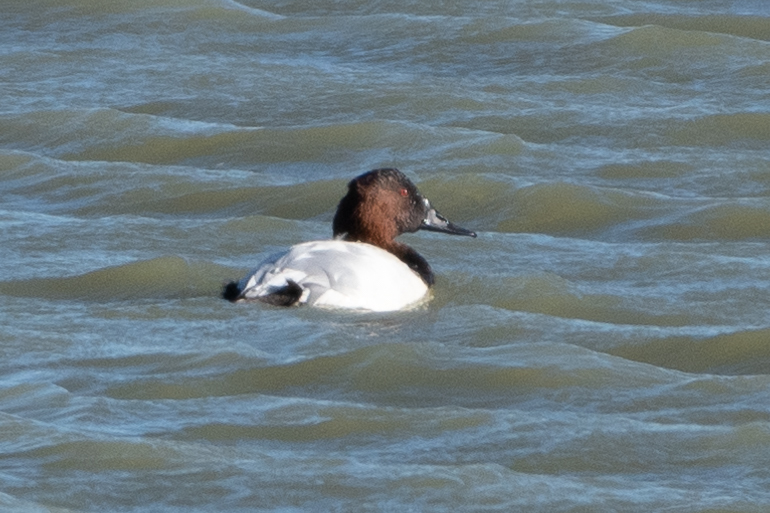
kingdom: Animalia
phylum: Chordata
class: Aves
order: Anseriformes
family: Anatidae
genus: Aythya
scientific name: Aythya valisineria
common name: Canvasback
